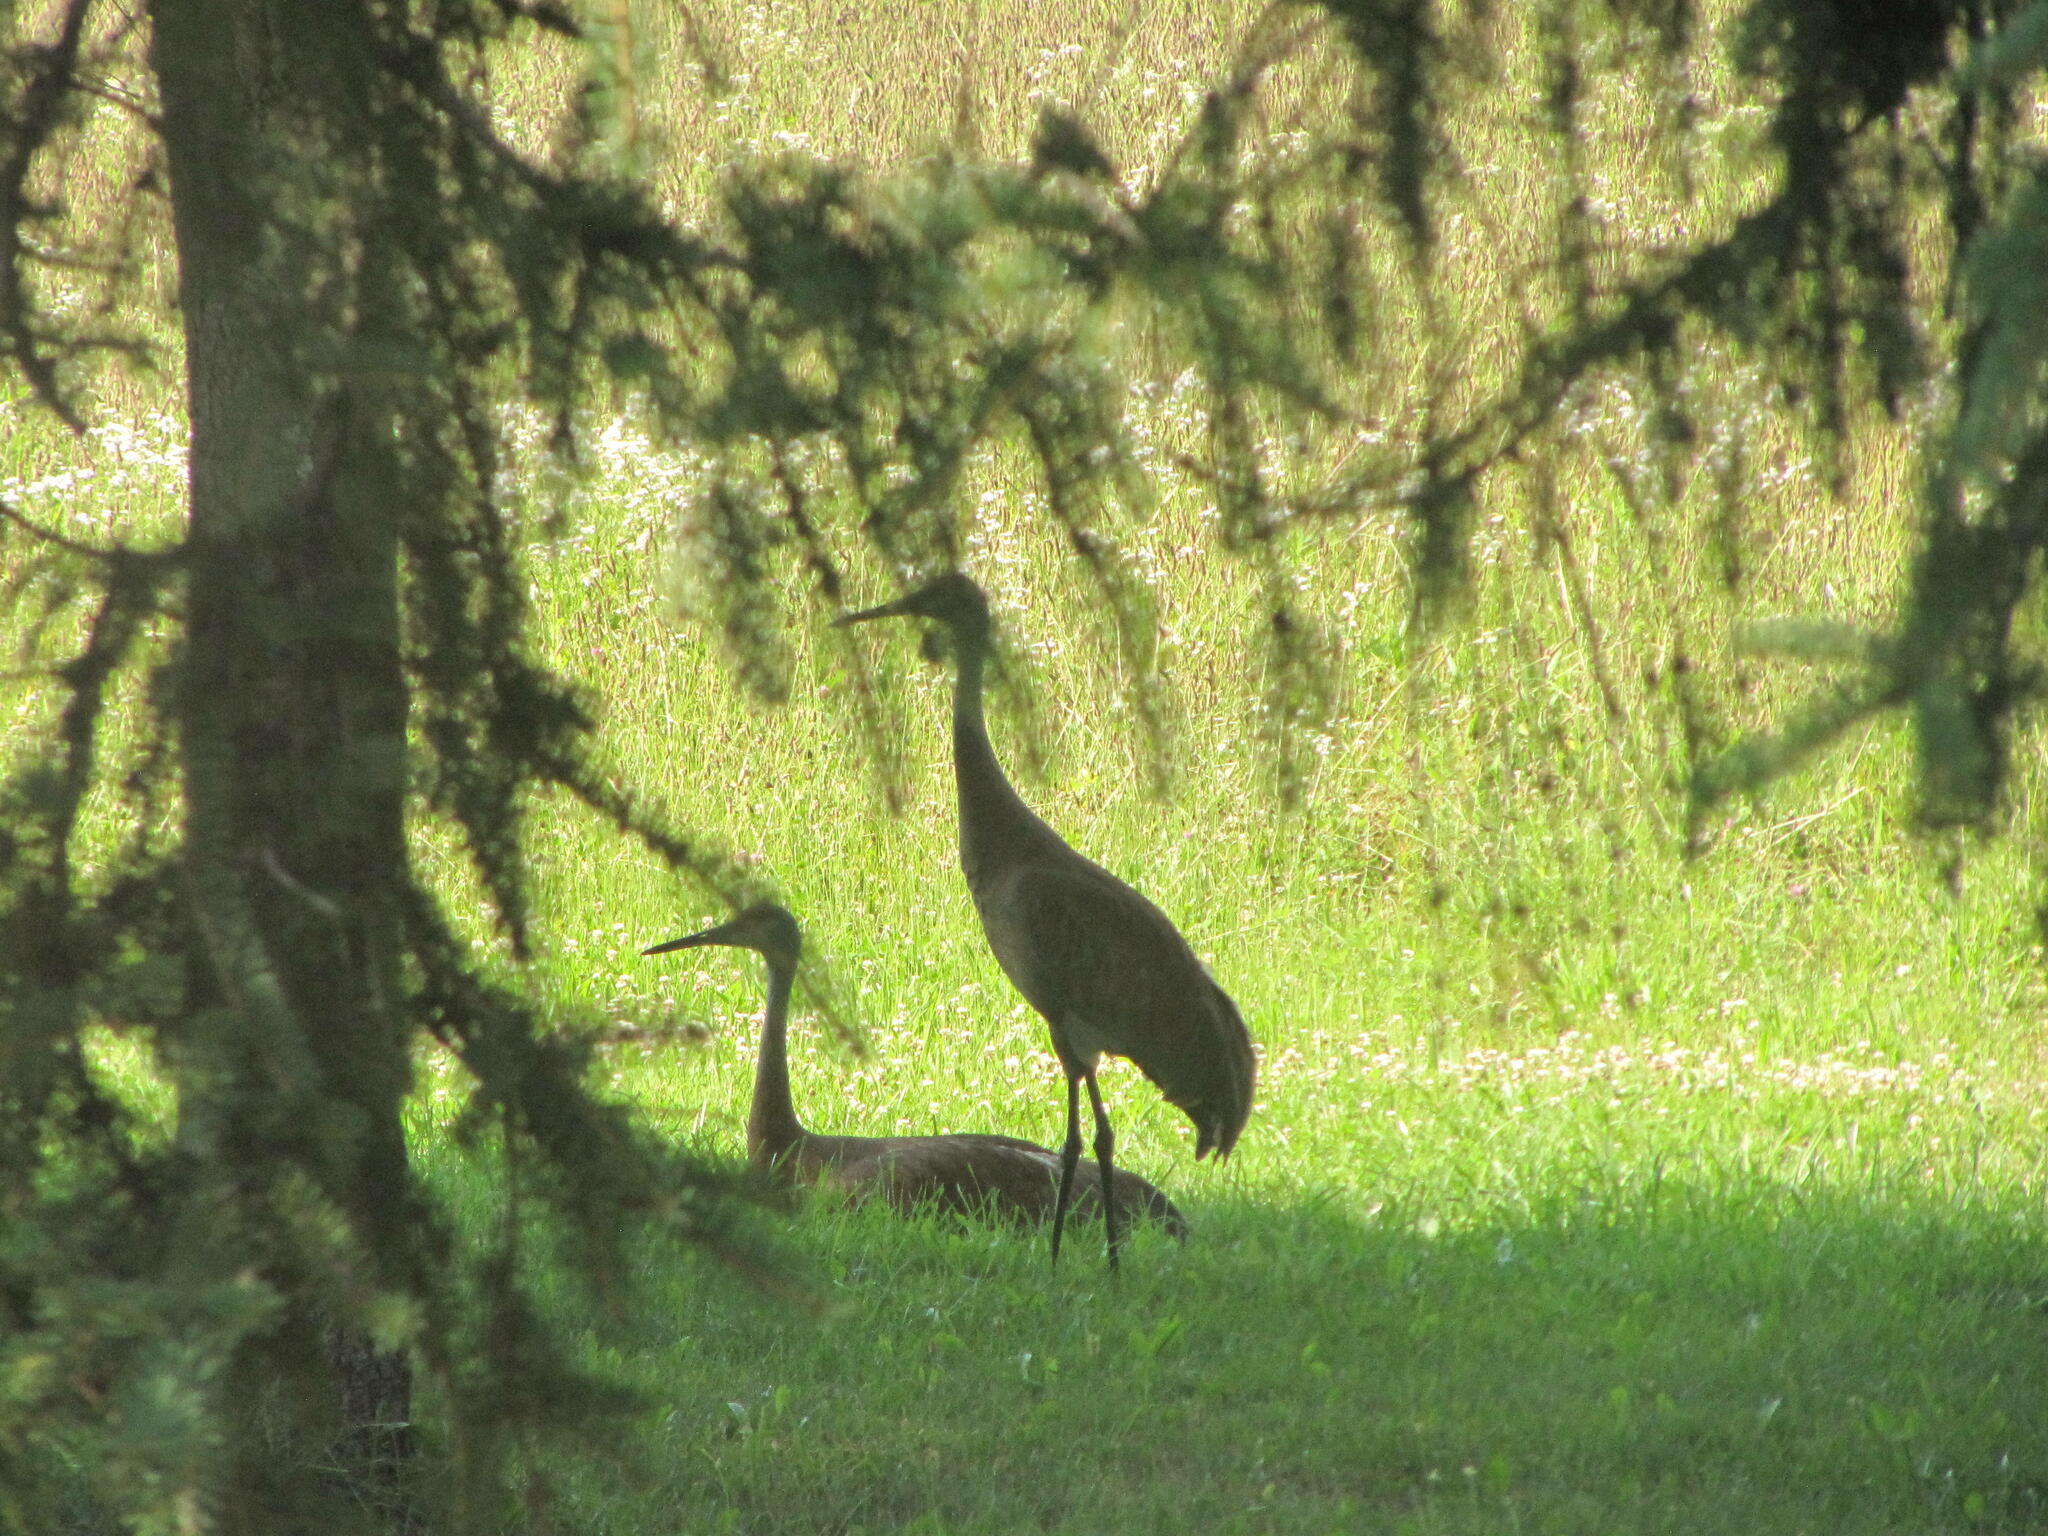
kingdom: Animalia
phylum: Chordata
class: Aves
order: Gruiformes
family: Gruidae
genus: Grus
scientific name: Grus canadensis
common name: Sandhill crane
